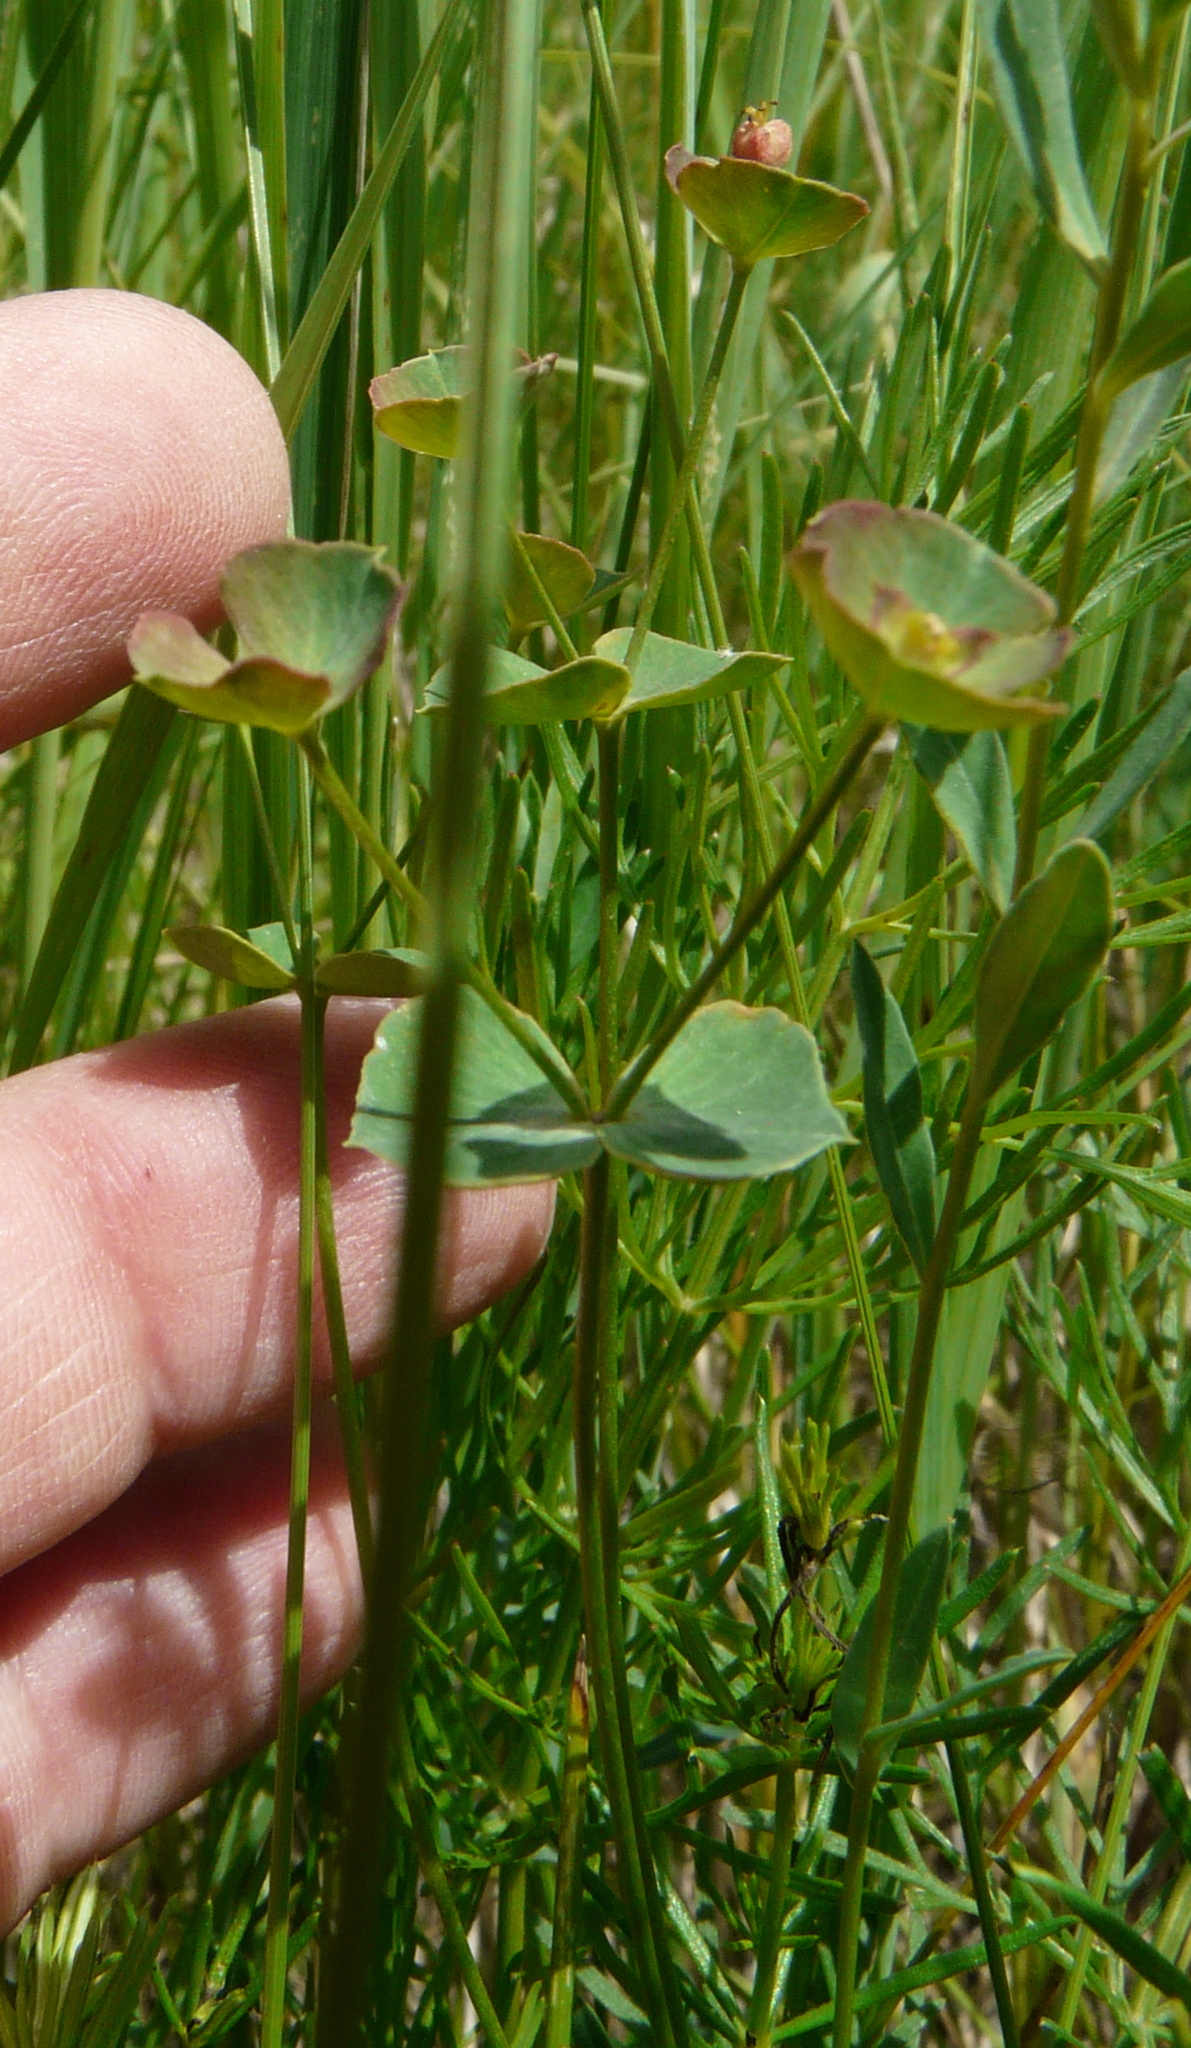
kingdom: Plantae
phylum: Tracheophyta
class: Magnoliopsida
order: Malpighiales
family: Euphorbiaceae
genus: Euphorbia
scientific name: Euphorbia microcarpa
